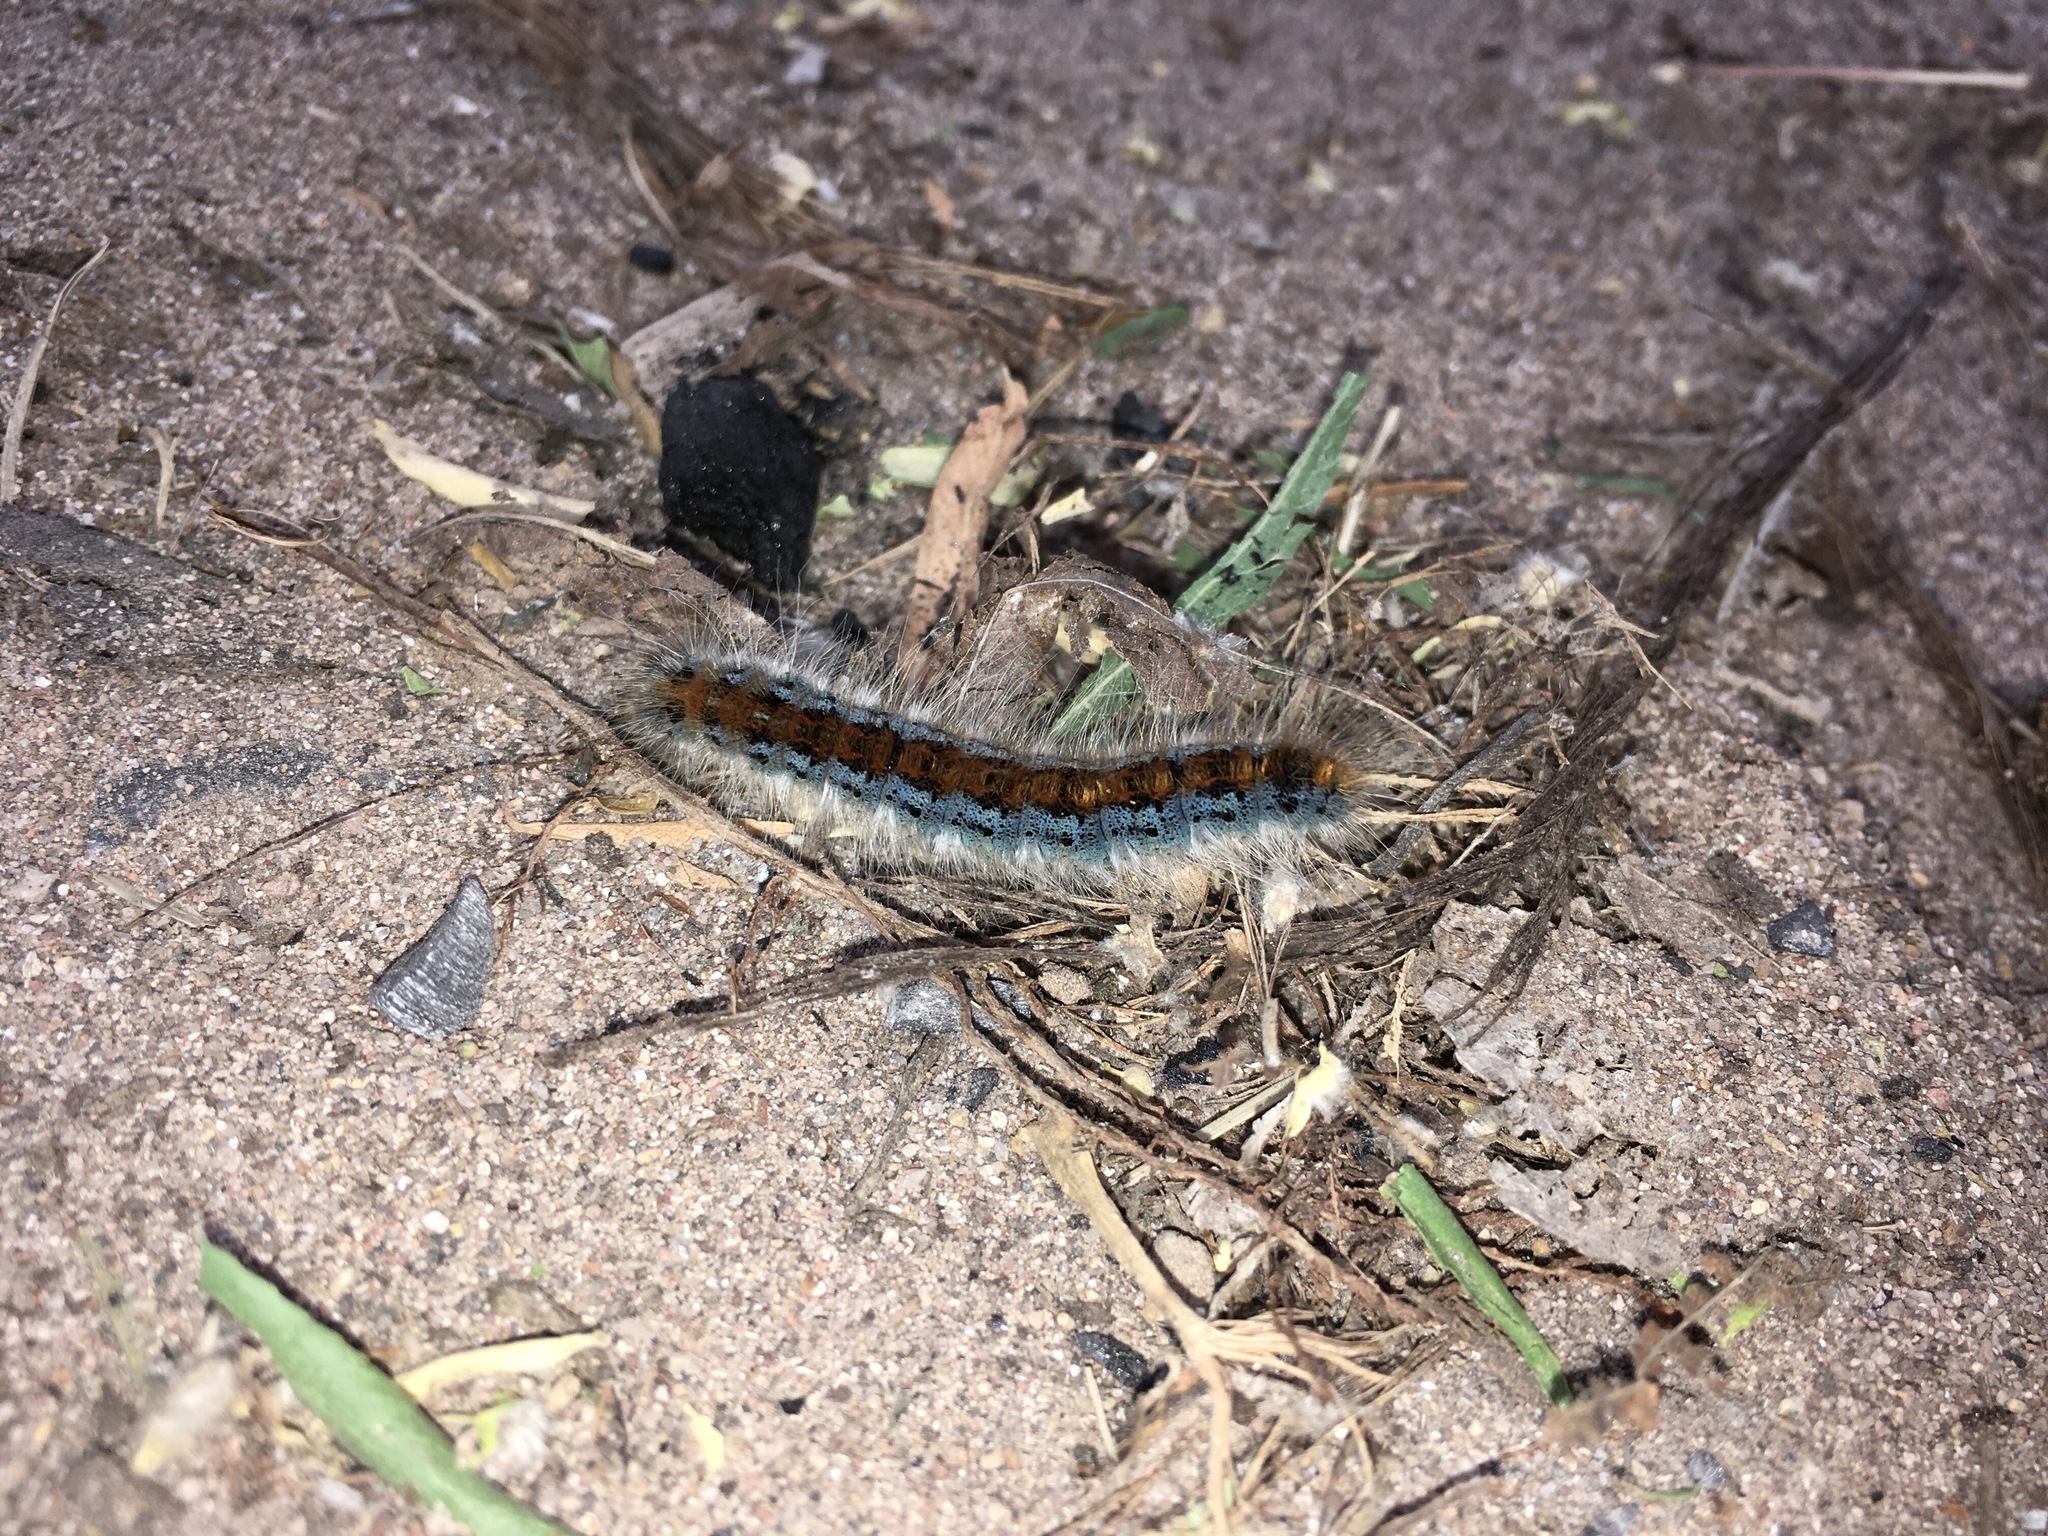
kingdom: Animalia
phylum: Arthropoda
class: Insecta
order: Lepidoptera
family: Lasiocampidae
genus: Malacosoma
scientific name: Malacosoma incurva
